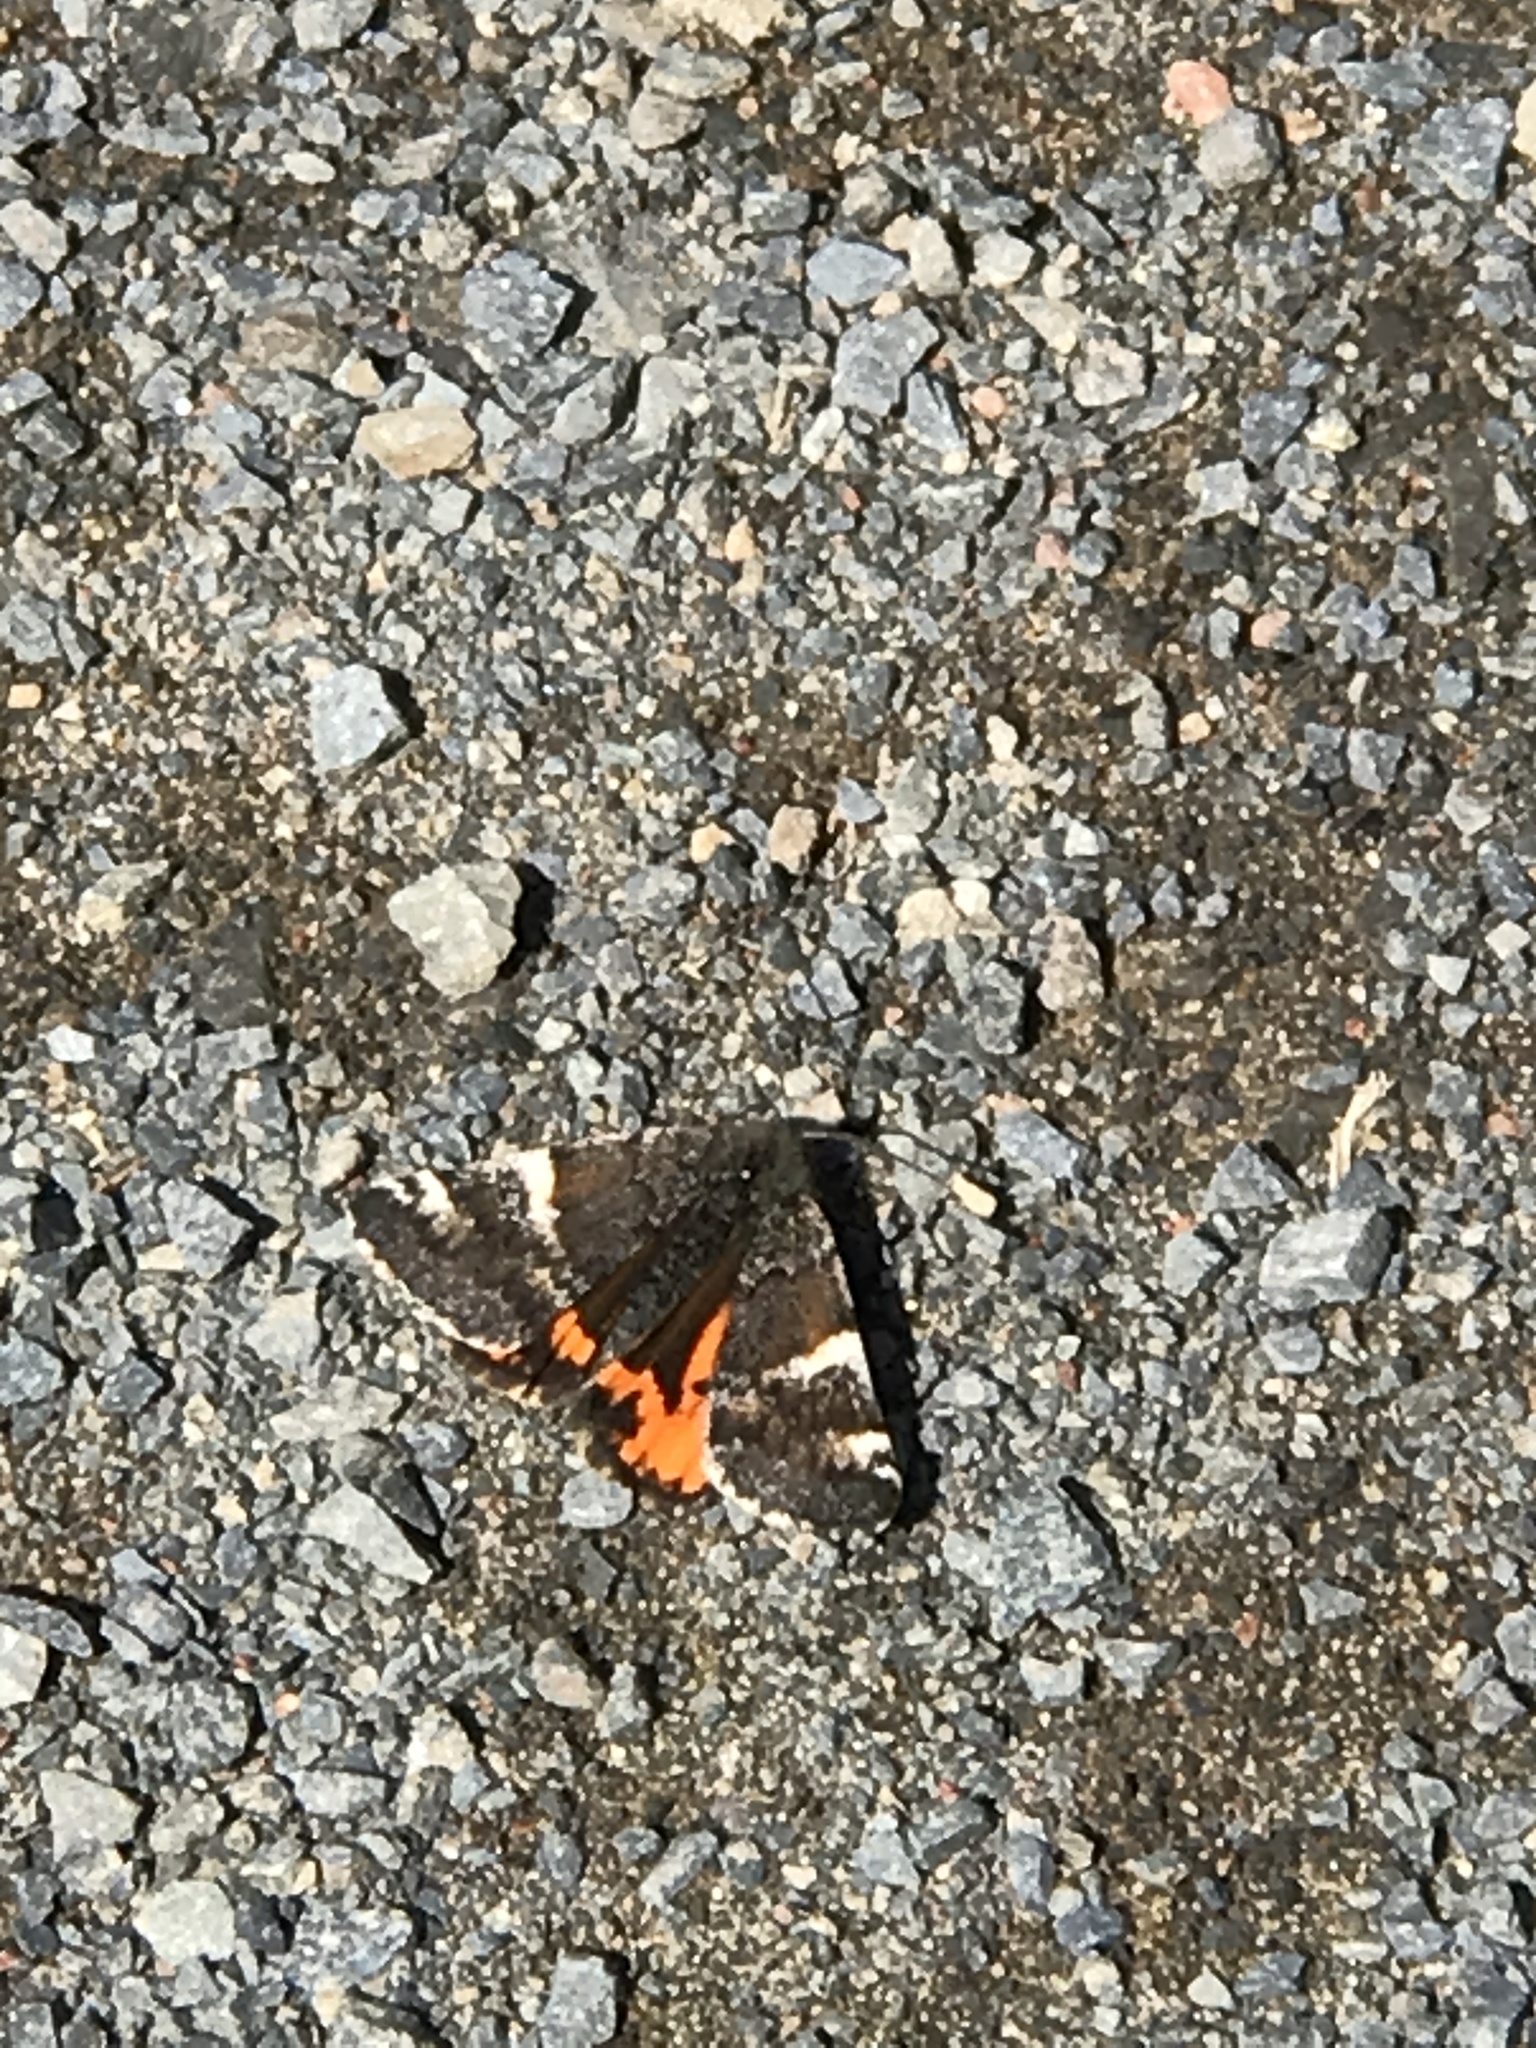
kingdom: Animalia
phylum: Arthropoda
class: Insecta
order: Lepidoptera
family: Geometridae
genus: Archiearis
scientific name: Archiearis infans
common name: First born geometer
